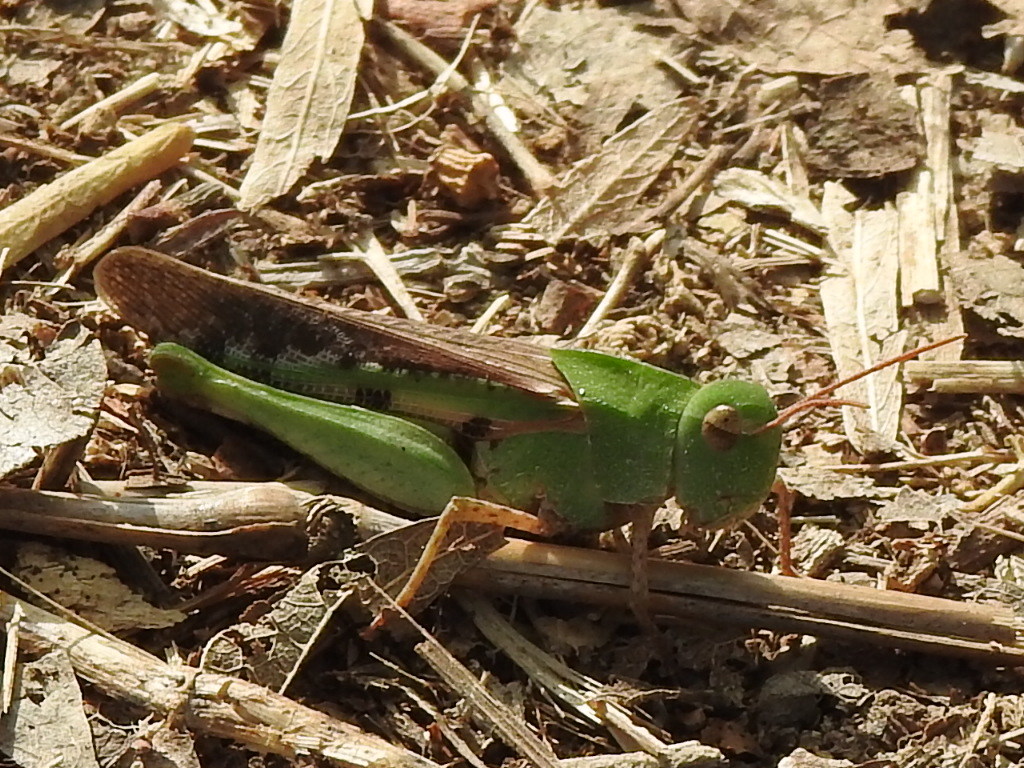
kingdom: Animalia
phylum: Arthropoda
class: Insecta
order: Orthoptera
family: Acrididae
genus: Chortophaga
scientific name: Chortophaga viridifasciata
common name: Green-striped grasshopper
